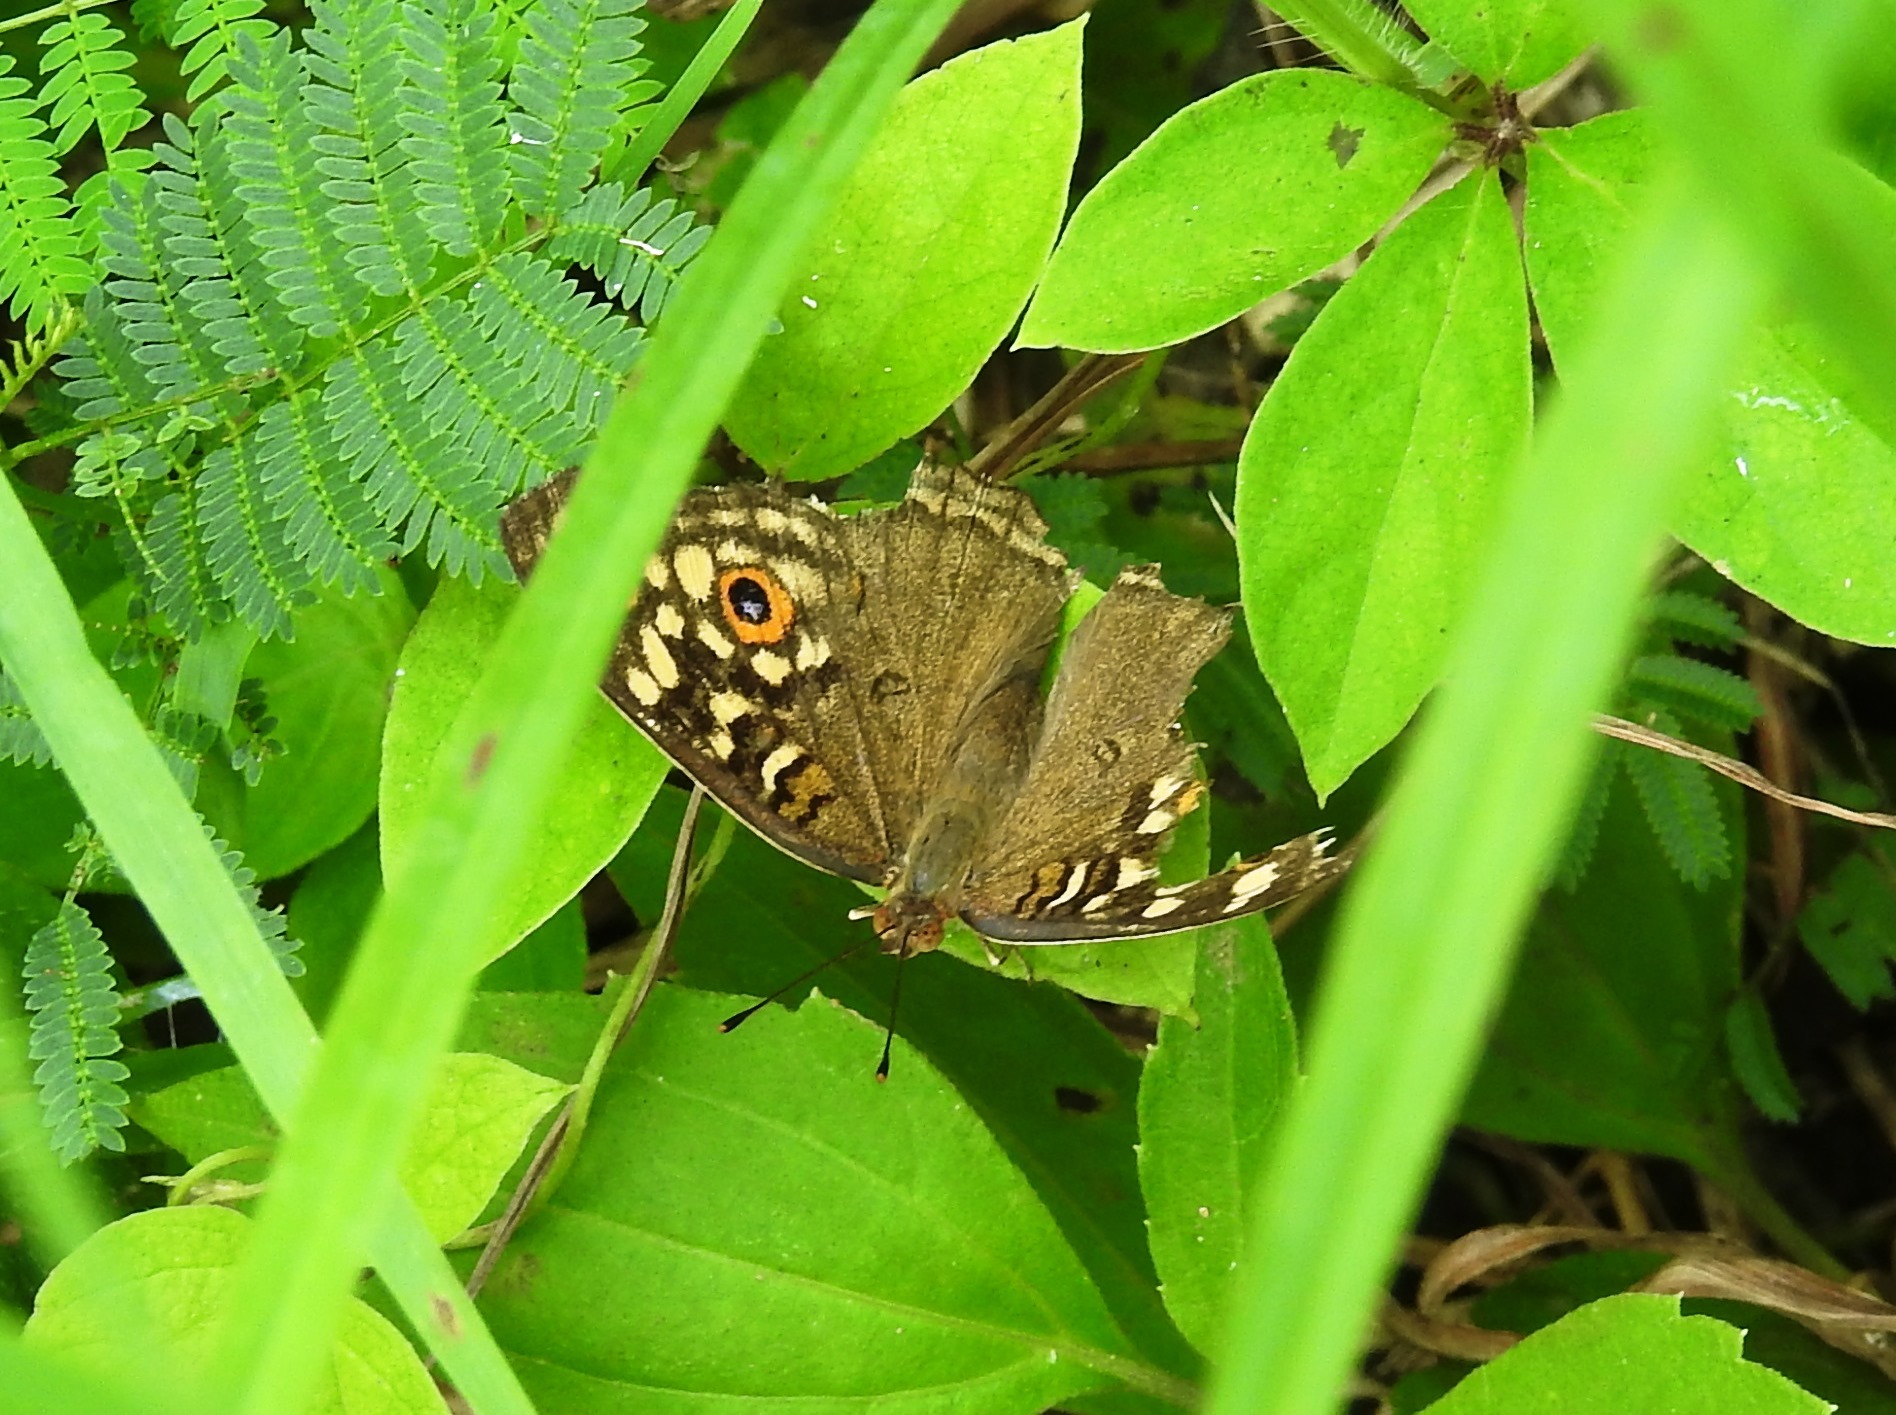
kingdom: Animalia
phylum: Arthropoda
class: Insecta
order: Lepidoptera
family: Nymphalidae
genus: Junonia
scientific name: Junonia lemonias
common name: Lemon pansy
